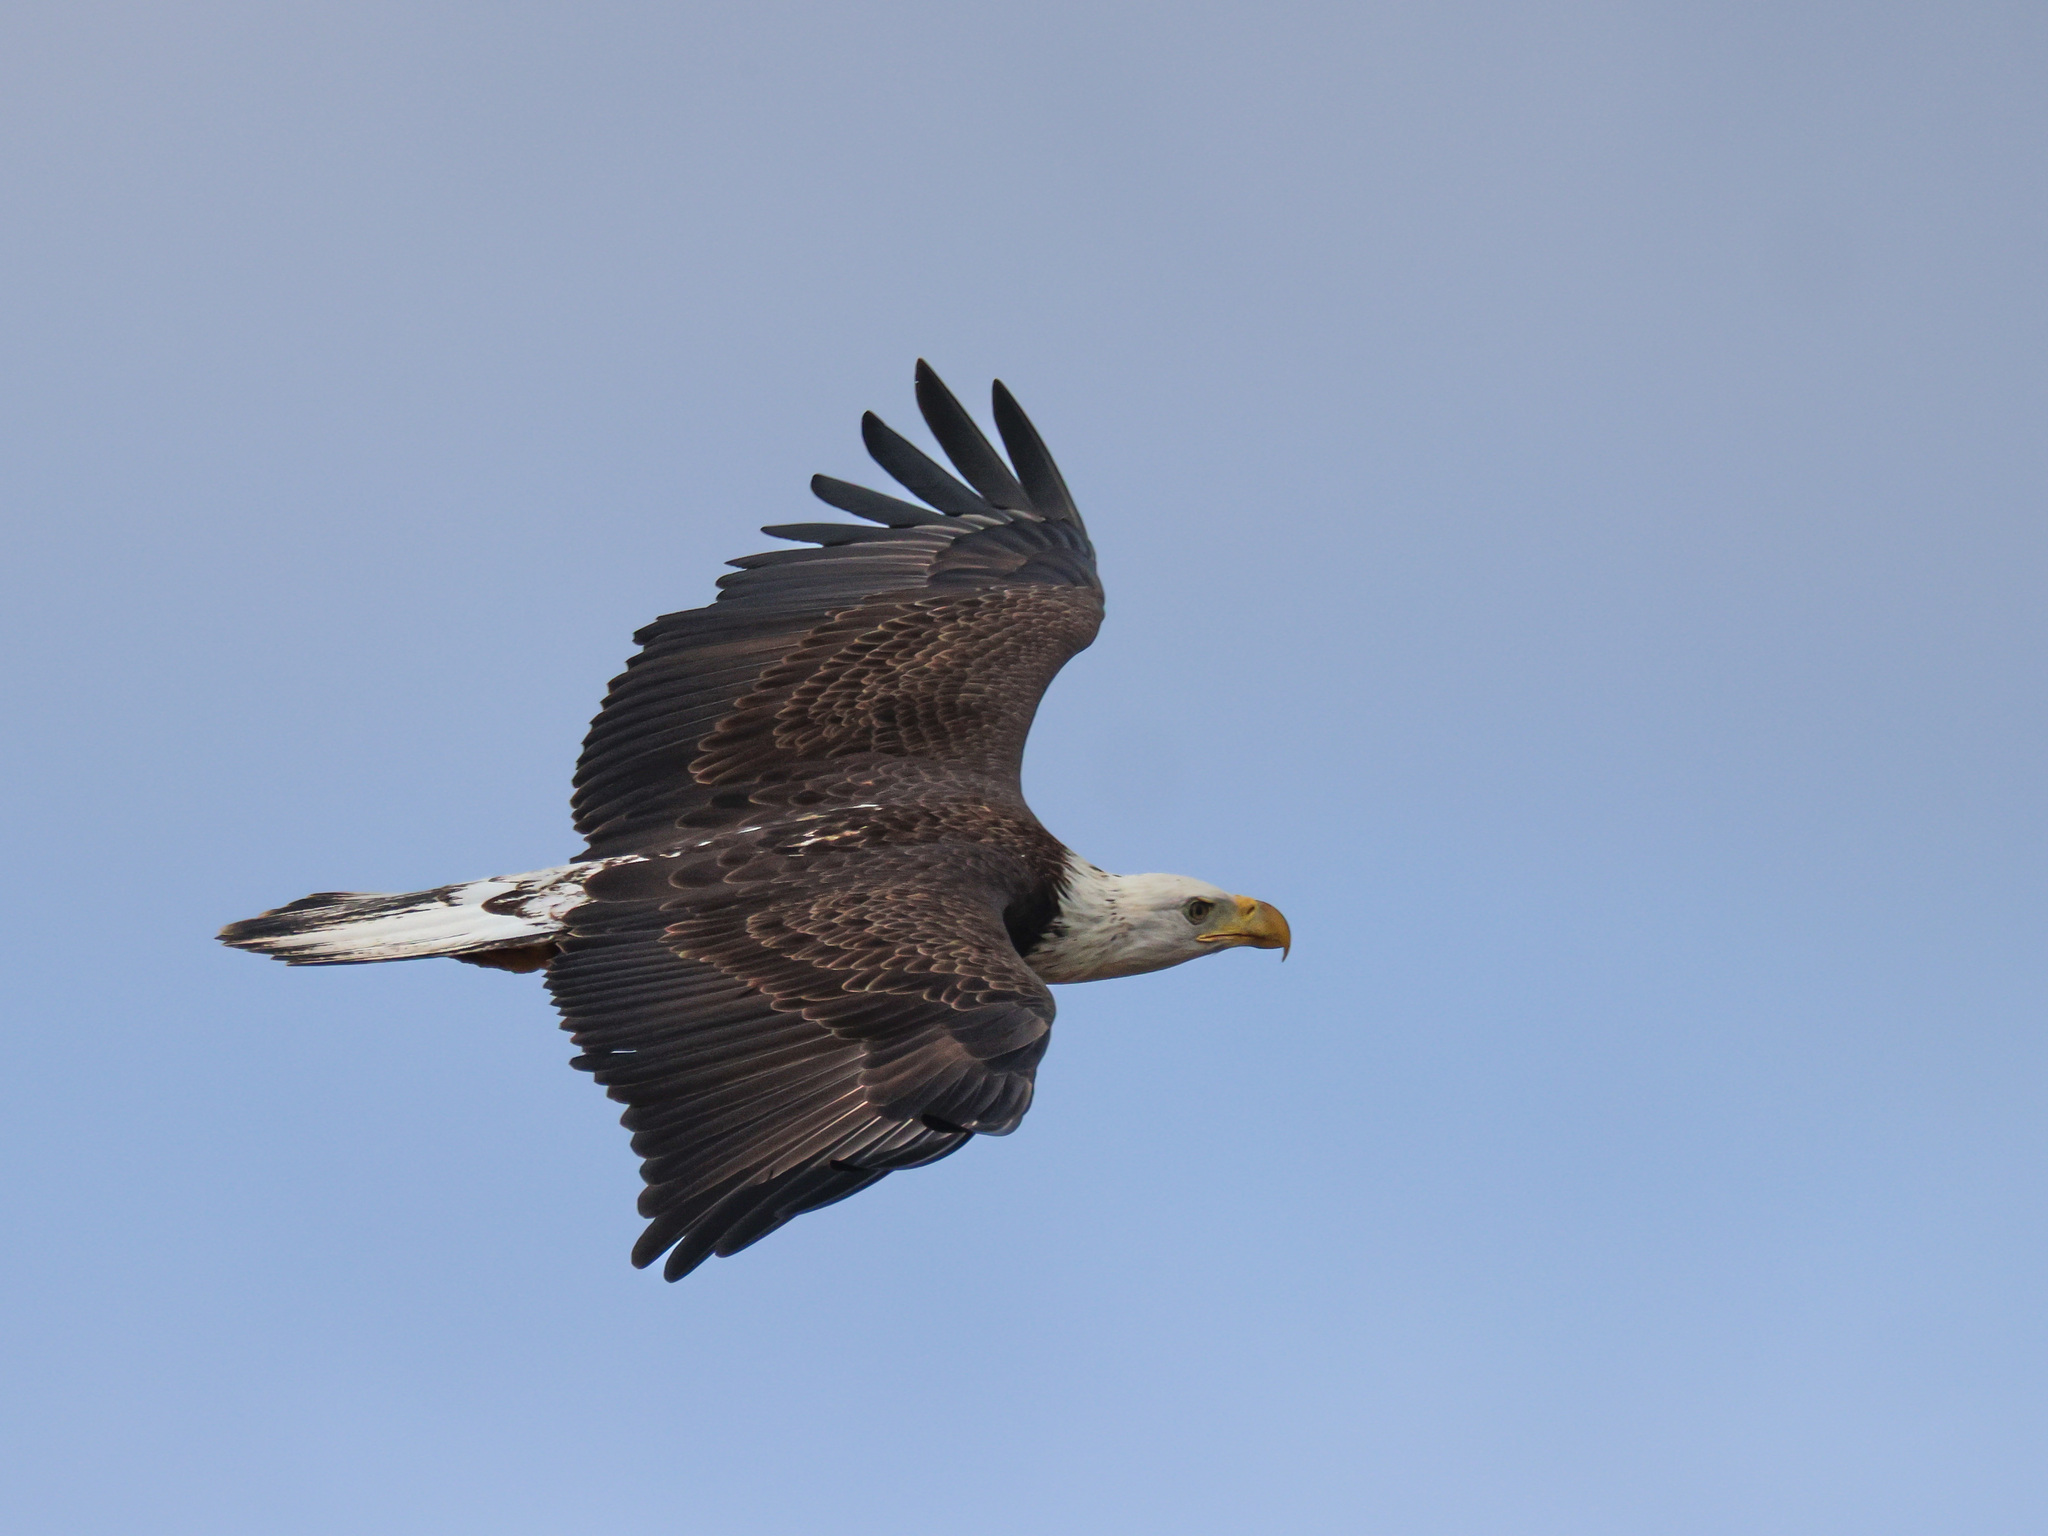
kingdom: Animalia
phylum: Chordata
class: Aves
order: Accipitriformes
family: Accipitridae
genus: Haliaeetus
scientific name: Haliaeetus leucocephalus
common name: Bald eagle
